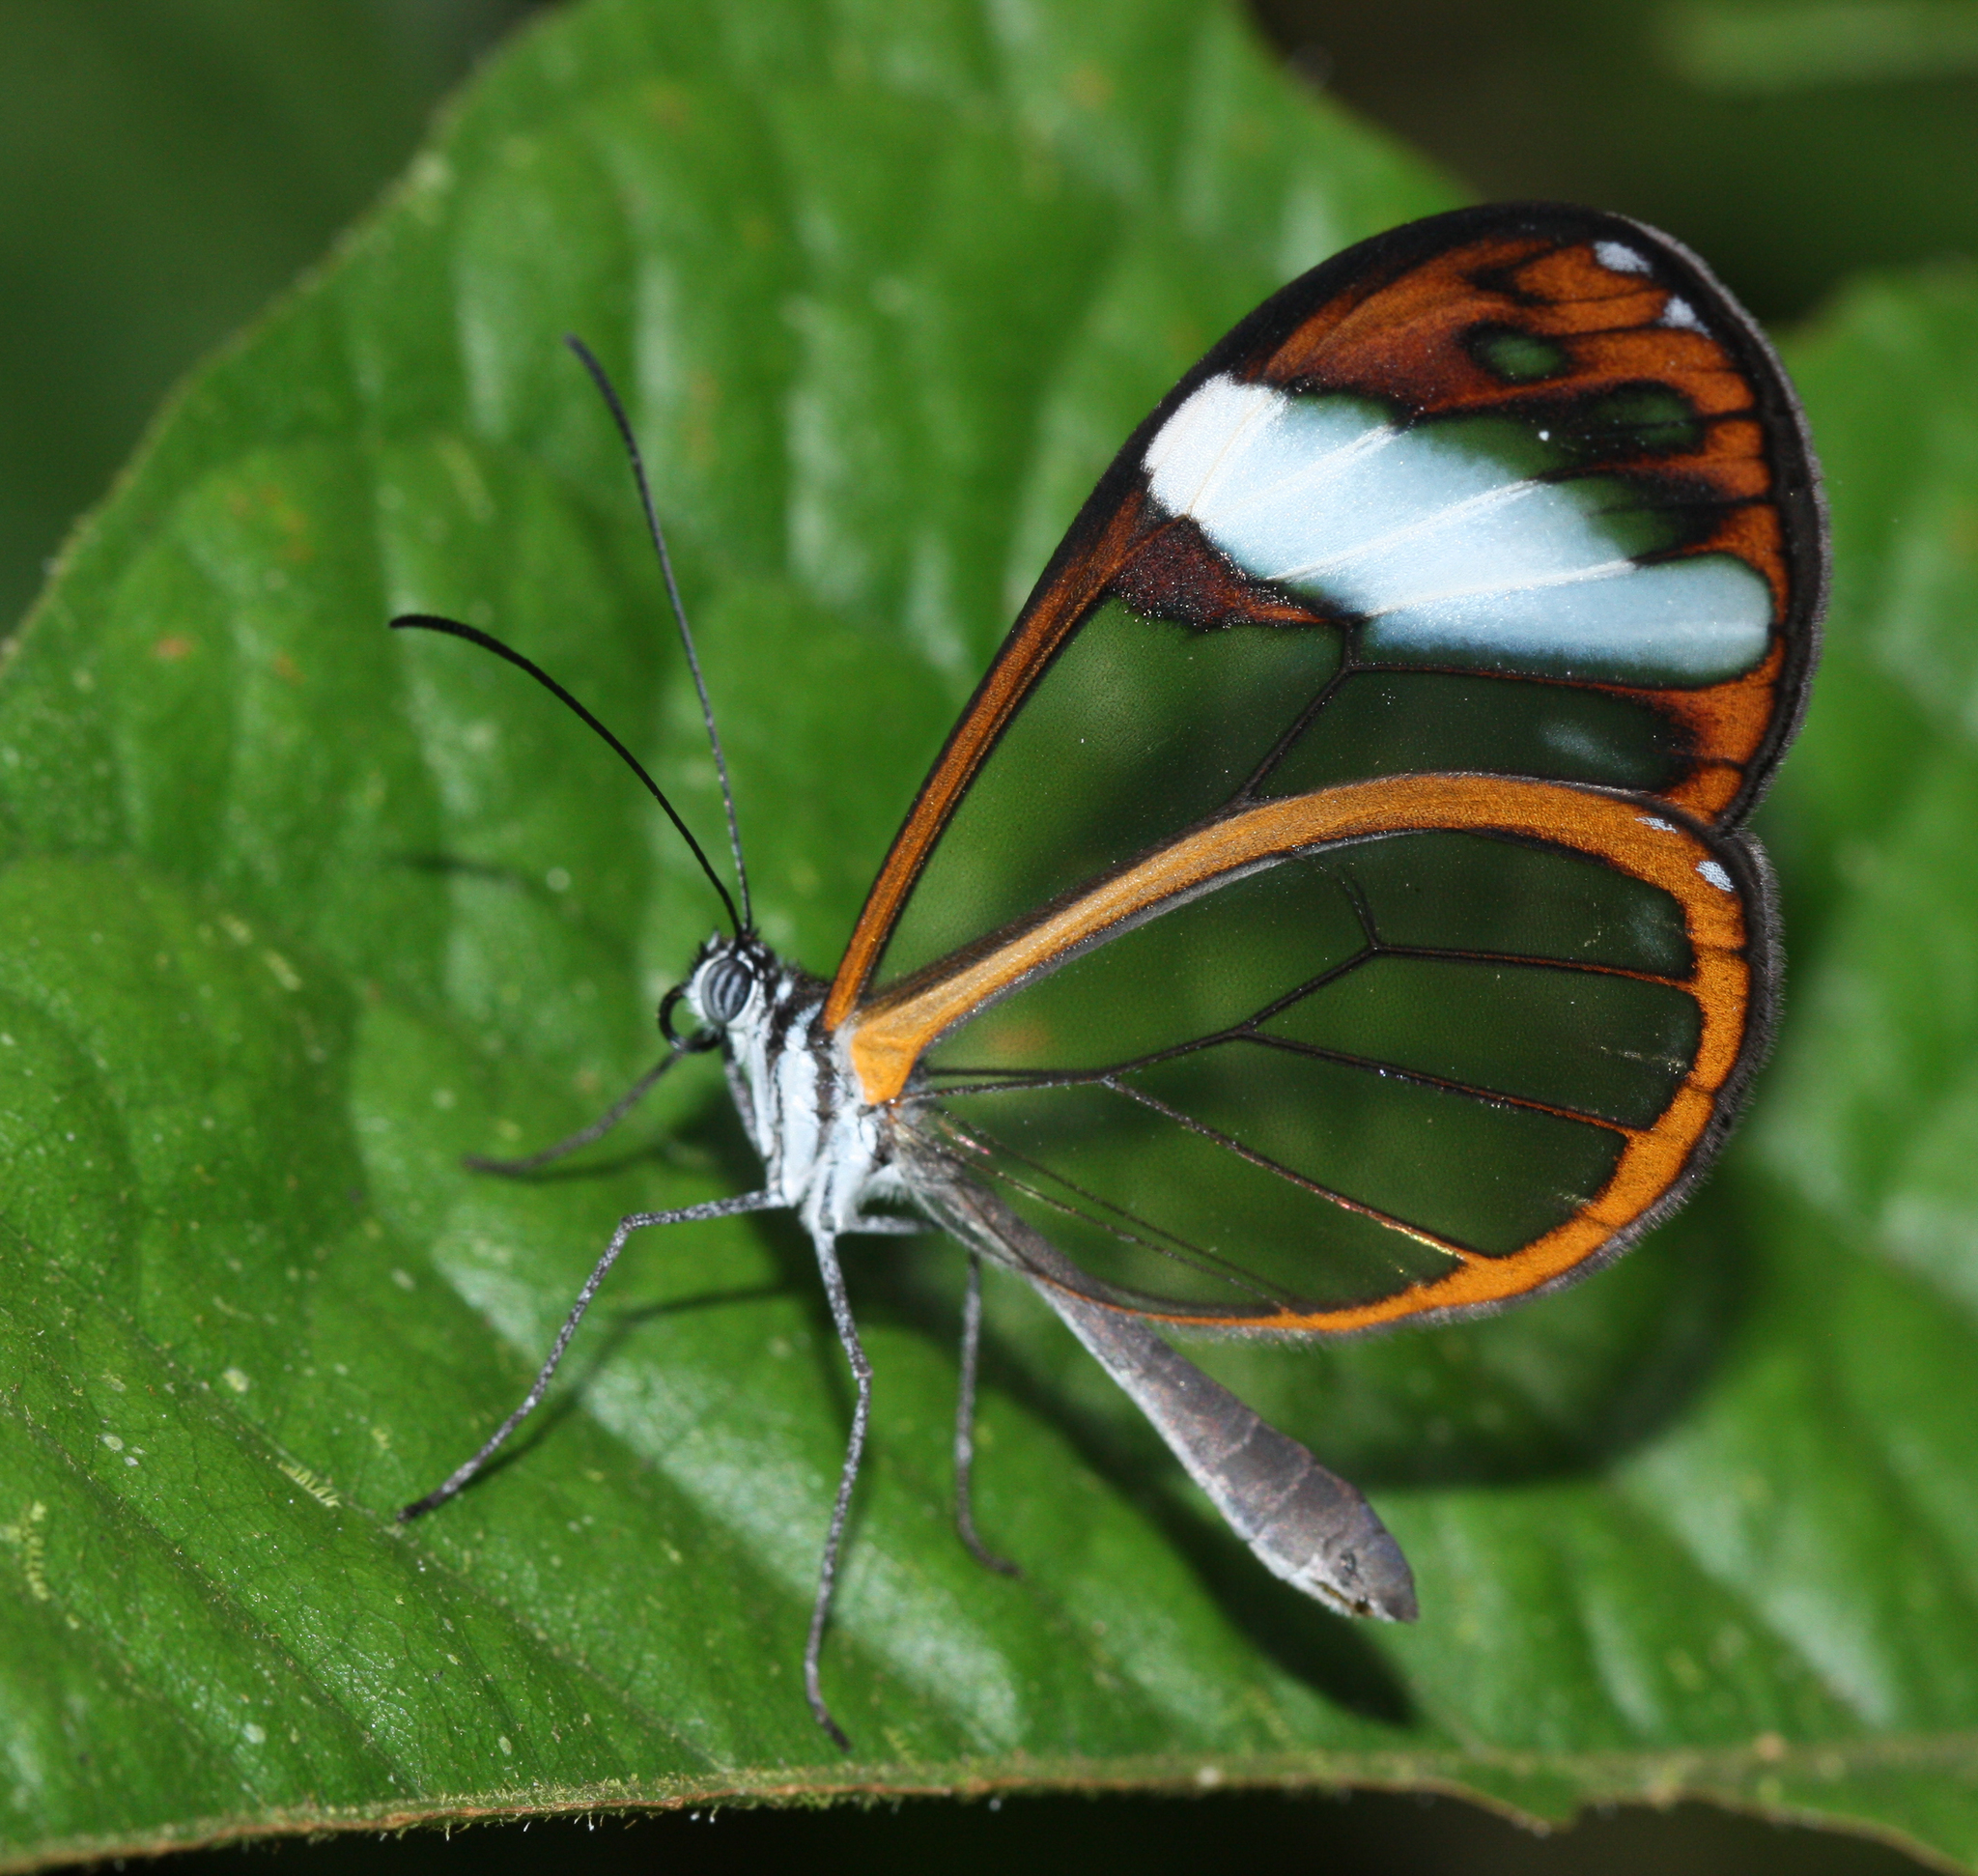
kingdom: Animalia
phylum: Arthropoda
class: Insecta
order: Lepidoptera
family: Nymphalidae
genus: Greta
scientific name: Greta andromica
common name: Andromica clearwing
